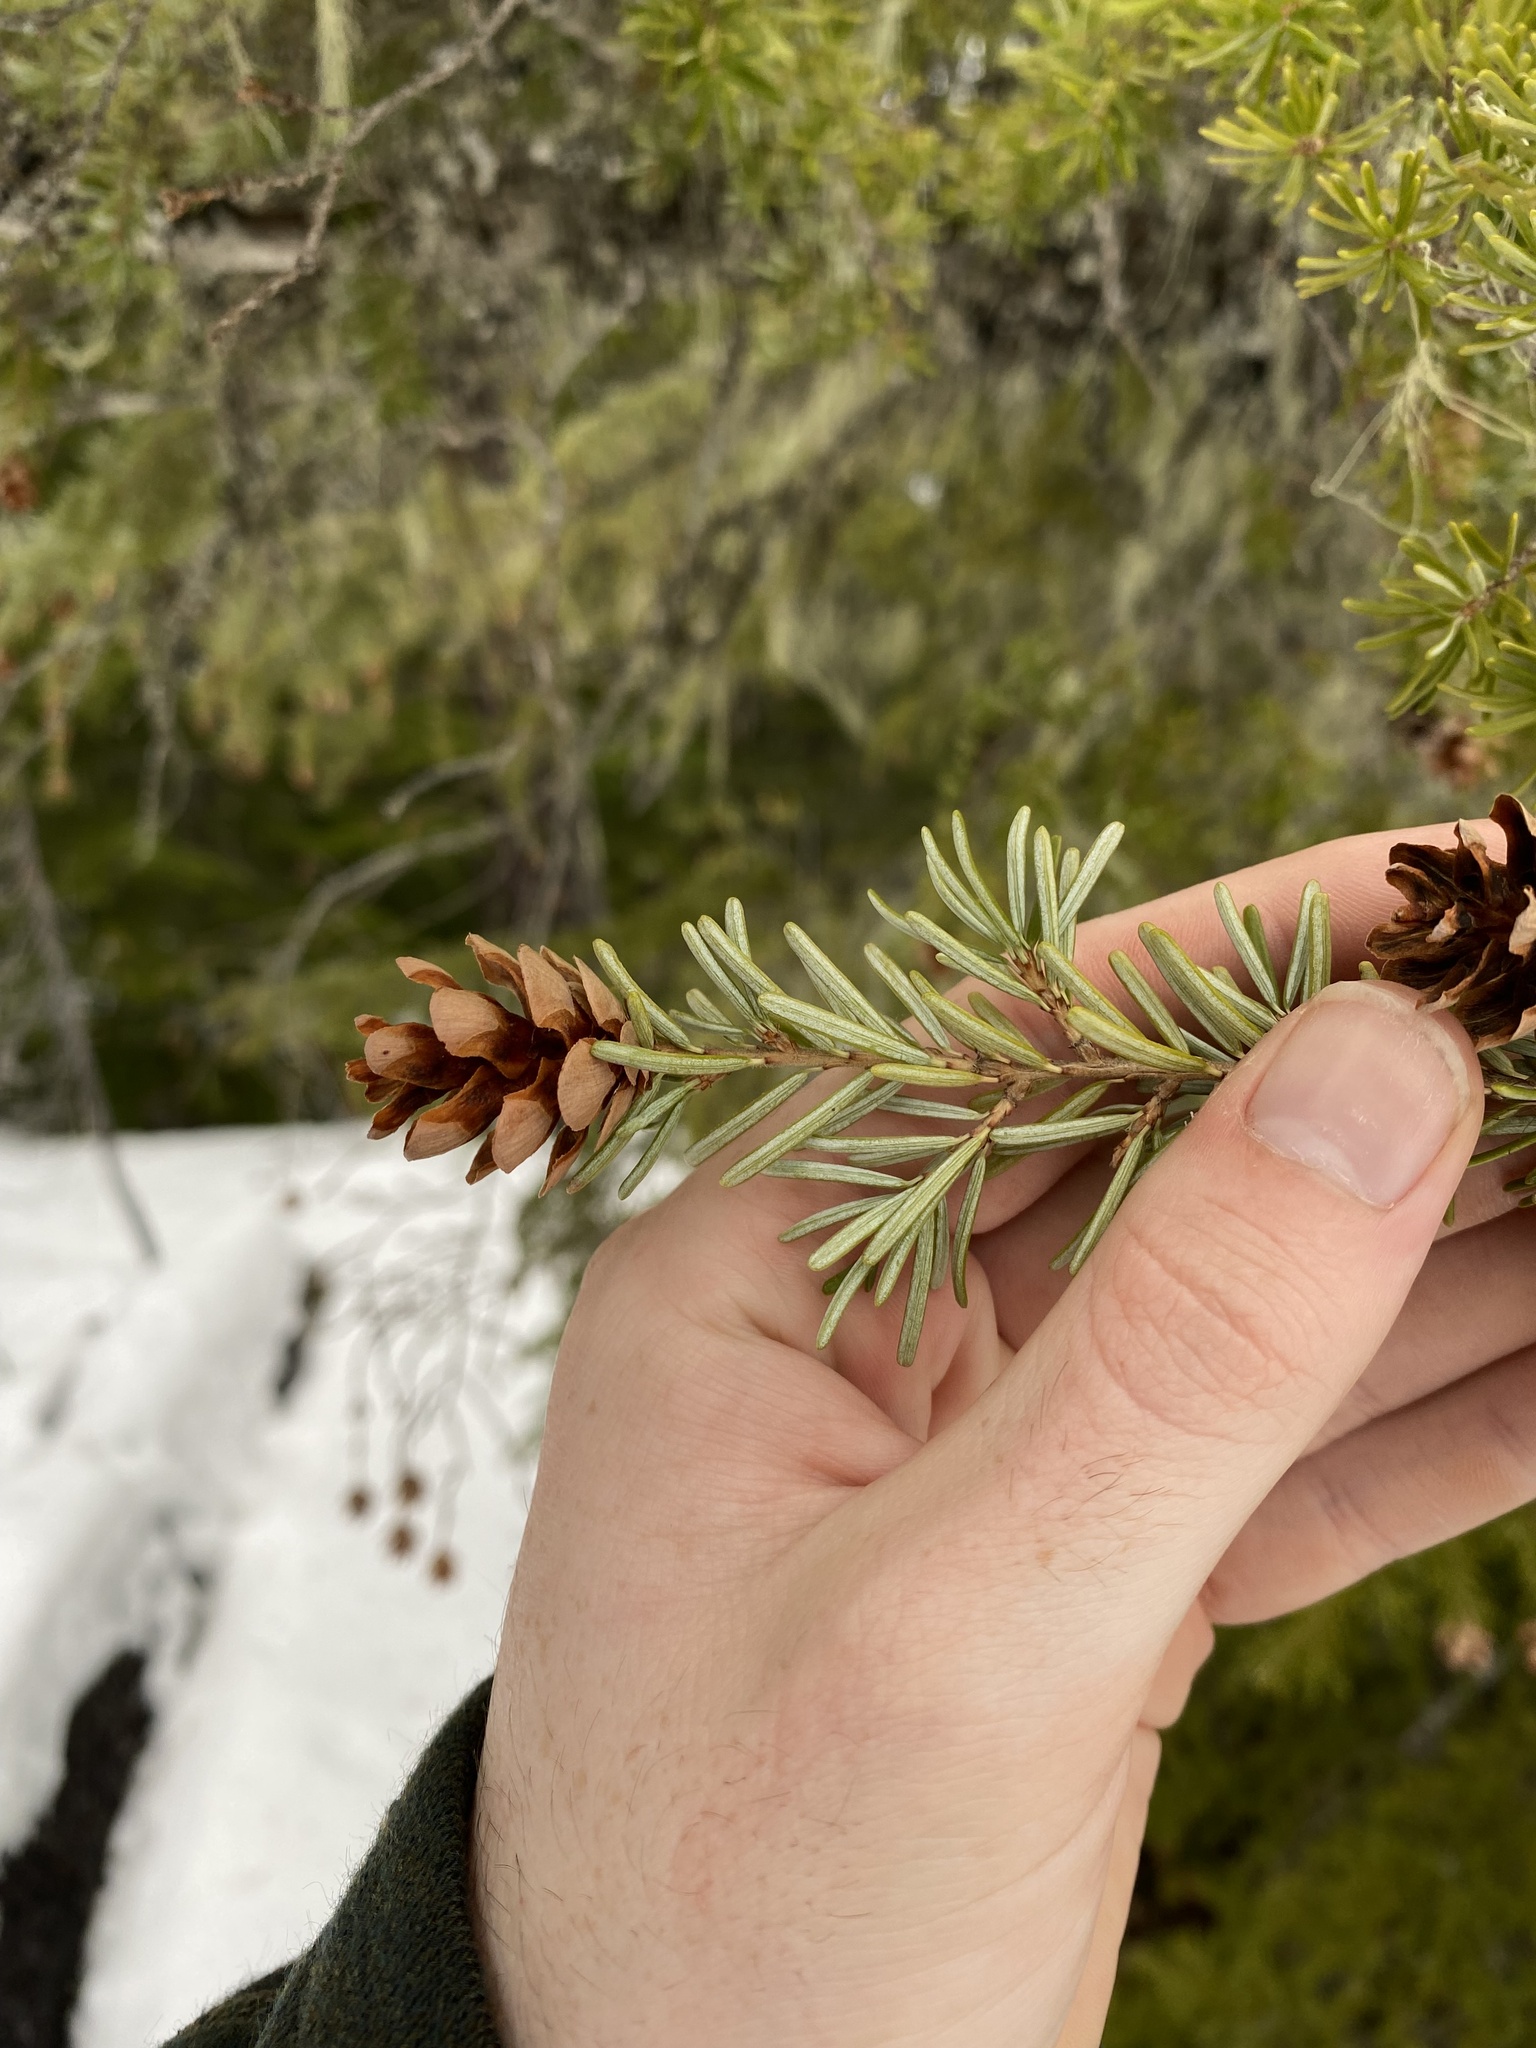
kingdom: Plantae
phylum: Tracheophyta
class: Pinopsida
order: Pinales
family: Pinaceae
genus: Tsuga
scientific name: Tsuga heterophylla
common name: Western hemlock
